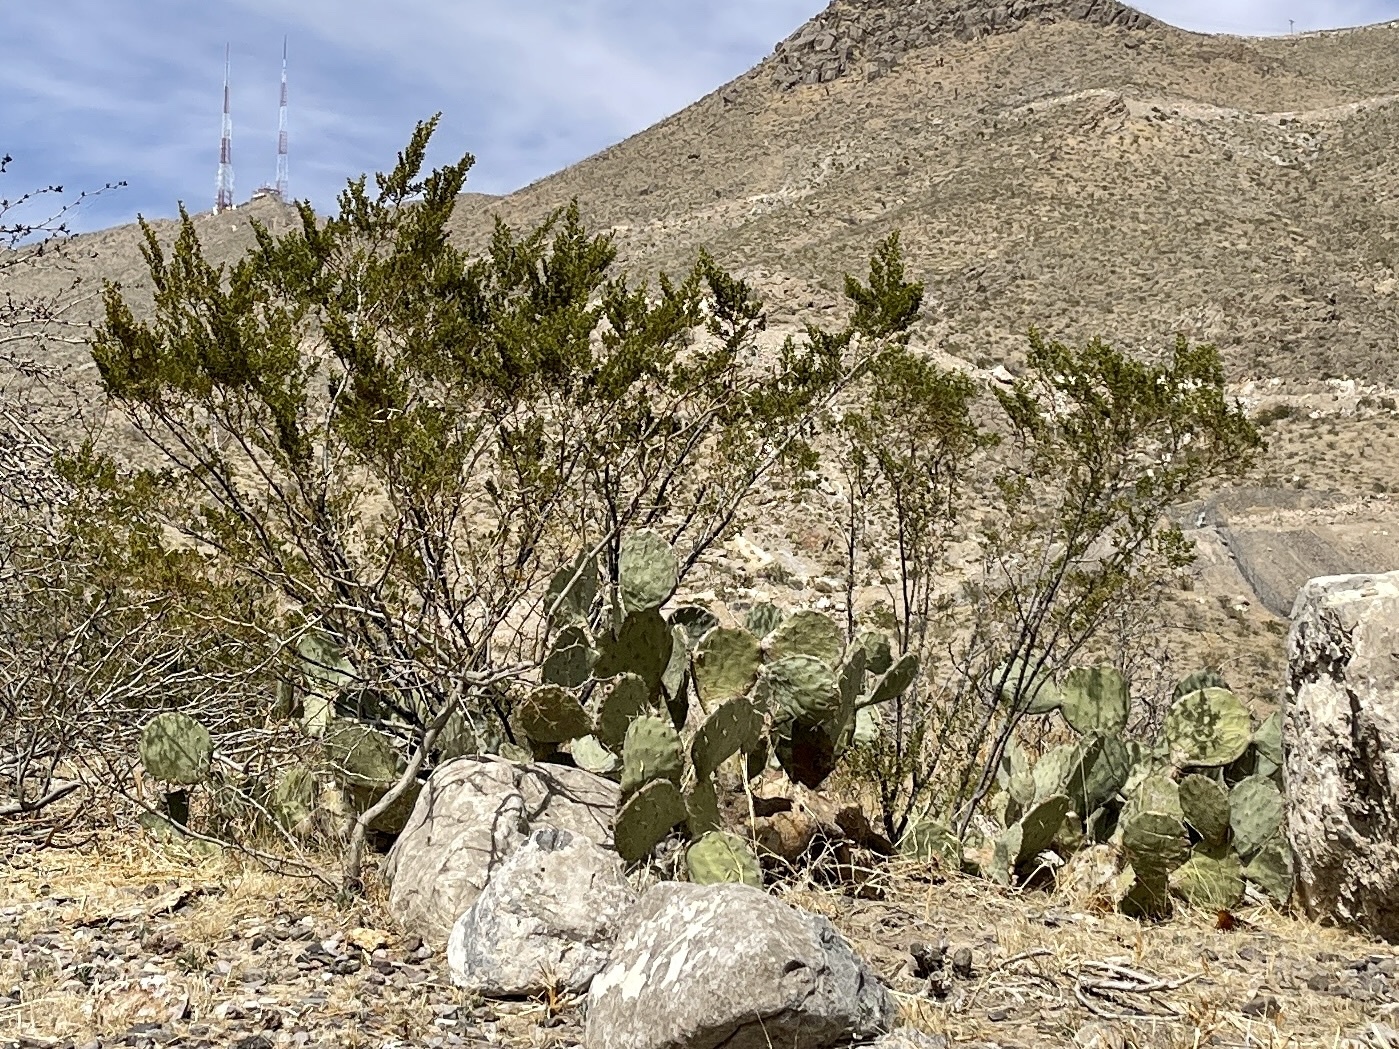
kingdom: Plantae
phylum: Tracheophyta
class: Magnoliopsida
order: Zygophyllales
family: Zygophyllaceae
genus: Larrea
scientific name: Larrea tridentata
